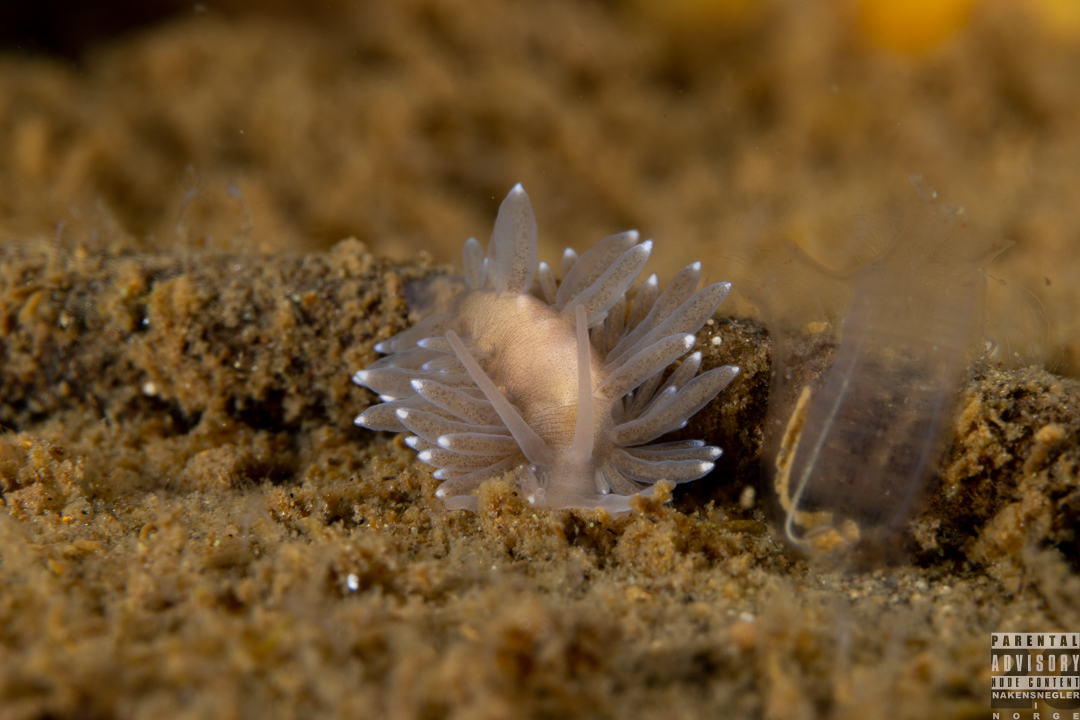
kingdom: Animalia
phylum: Mollusca
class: Gastropoda
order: Nudibranchia
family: Cuthonidae
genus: Bohuslania
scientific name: Bohuslania matsmichaeli
